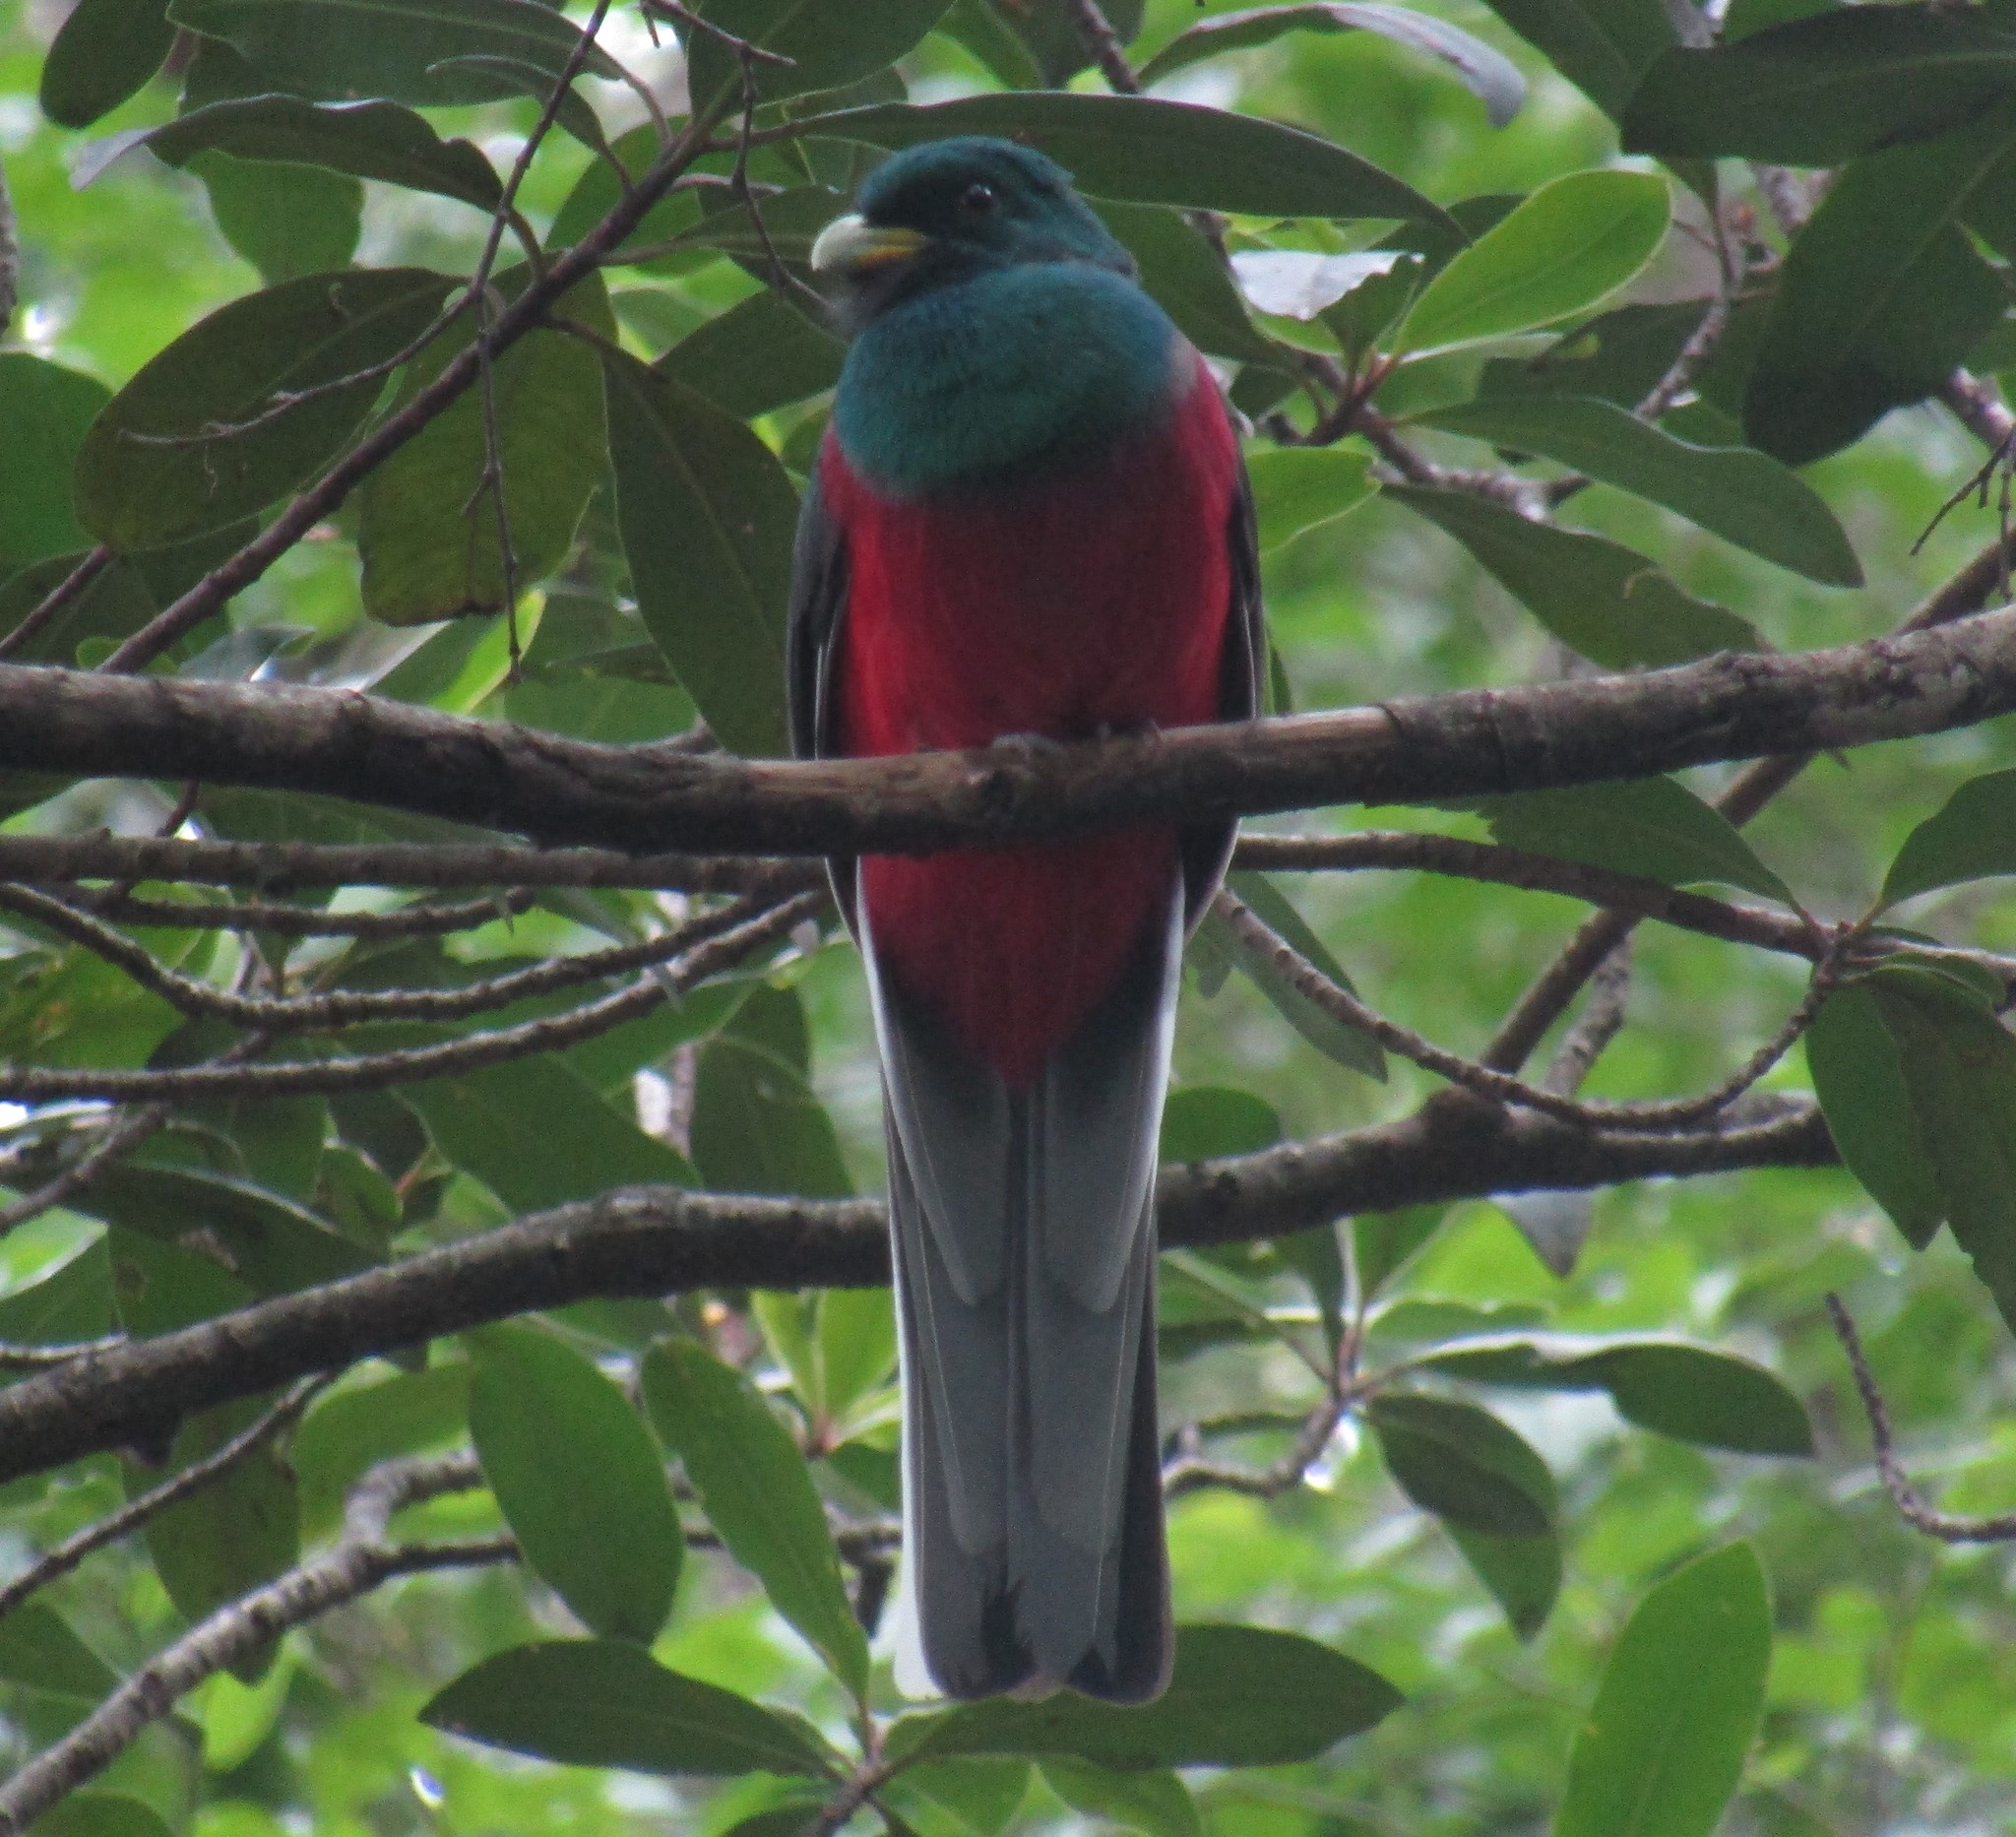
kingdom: Animalia
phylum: Chordata
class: Aves
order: Trogoniformes
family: Trogonidae
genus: Apaloderma
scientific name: Apaloderma narina
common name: Narina trogon
